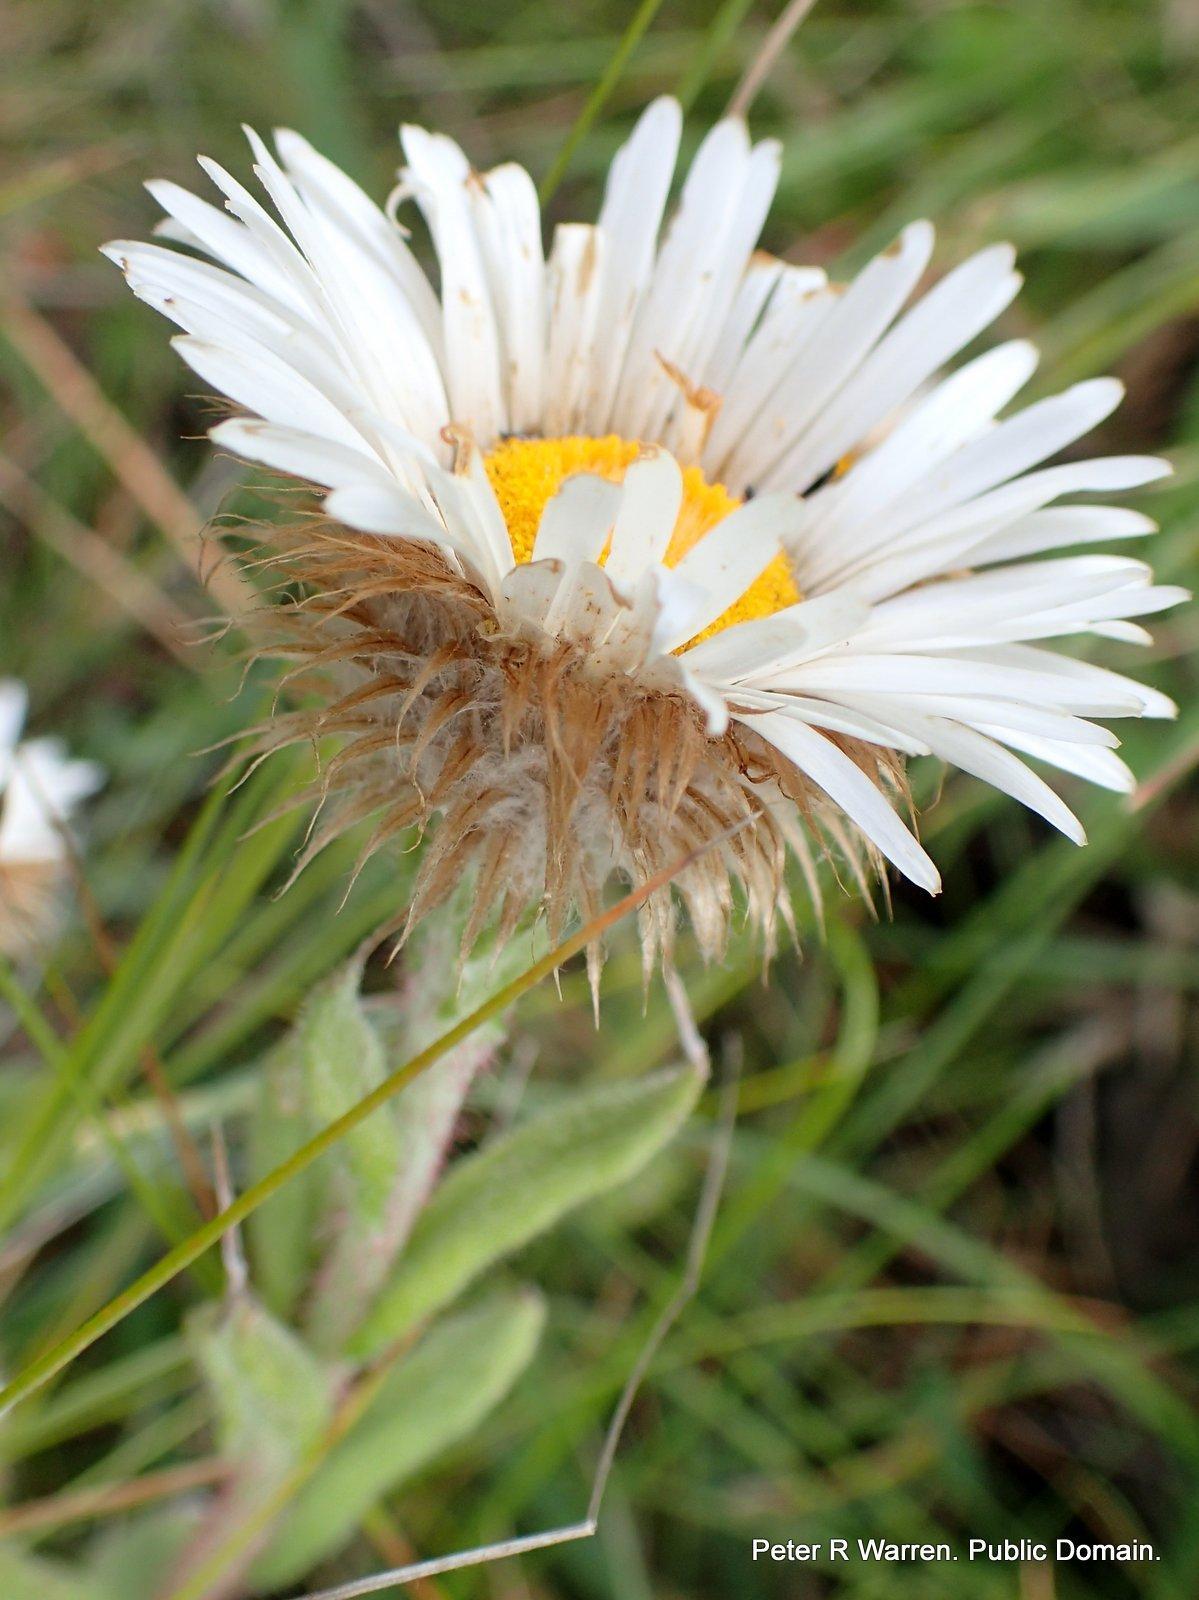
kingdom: Plantae
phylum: Tracheophyta
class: Magnoliopsida
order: Asterales
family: Asteraceae
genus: Athrixia
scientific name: Athrixia fontana
